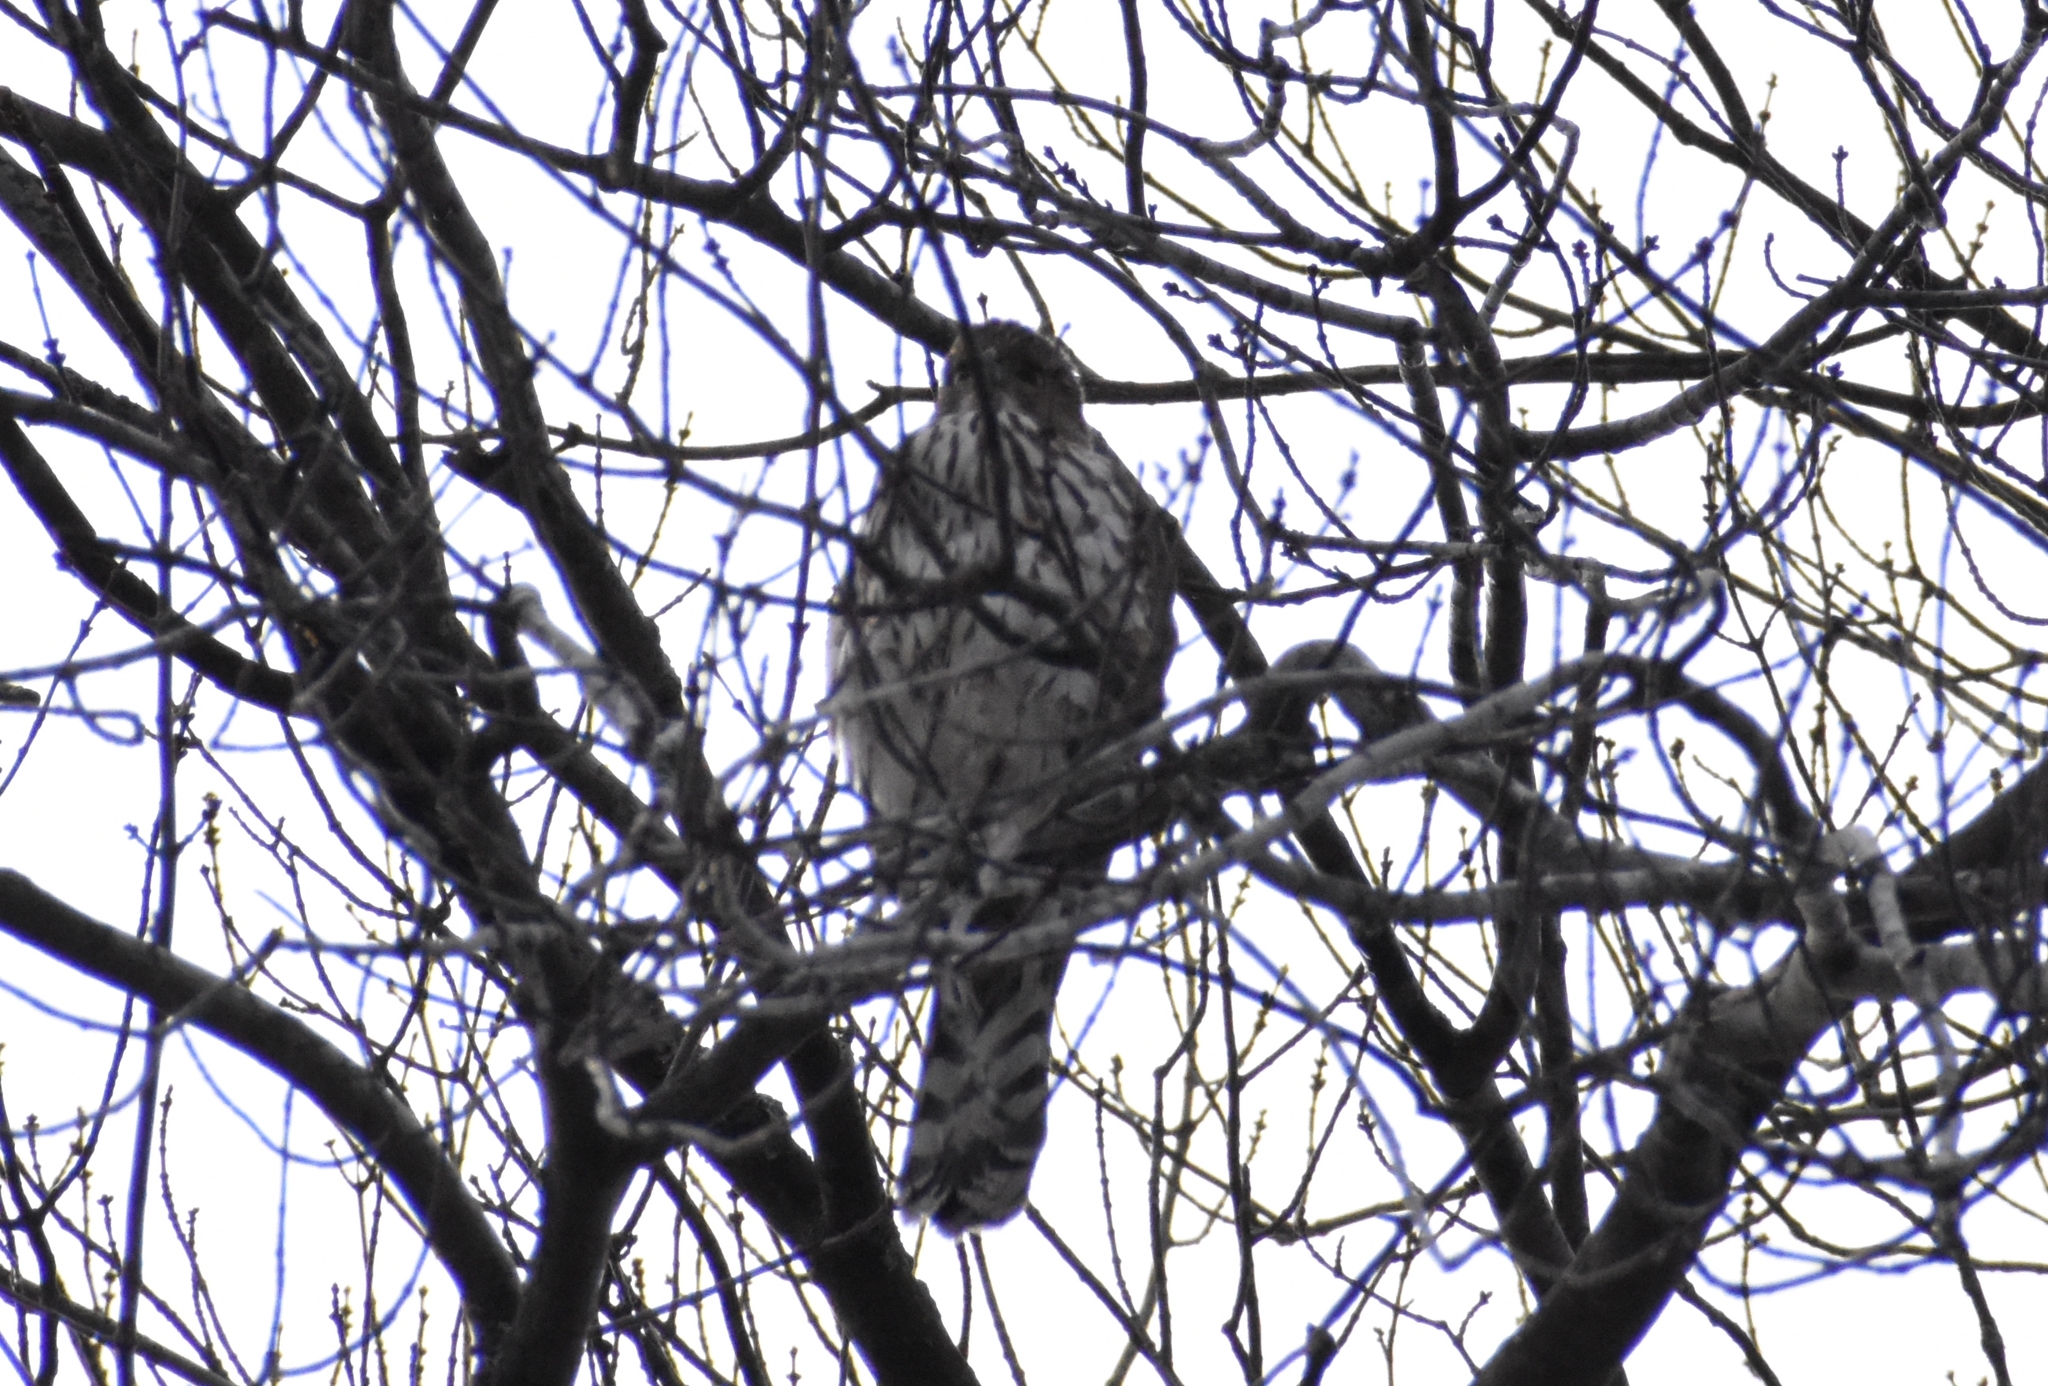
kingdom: Animalia
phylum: Chordata
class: Aves
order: Accipitriformes
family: Accipitridae
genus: Accipiter
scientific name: Accipiter cooperii
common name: Cooper's hawk
